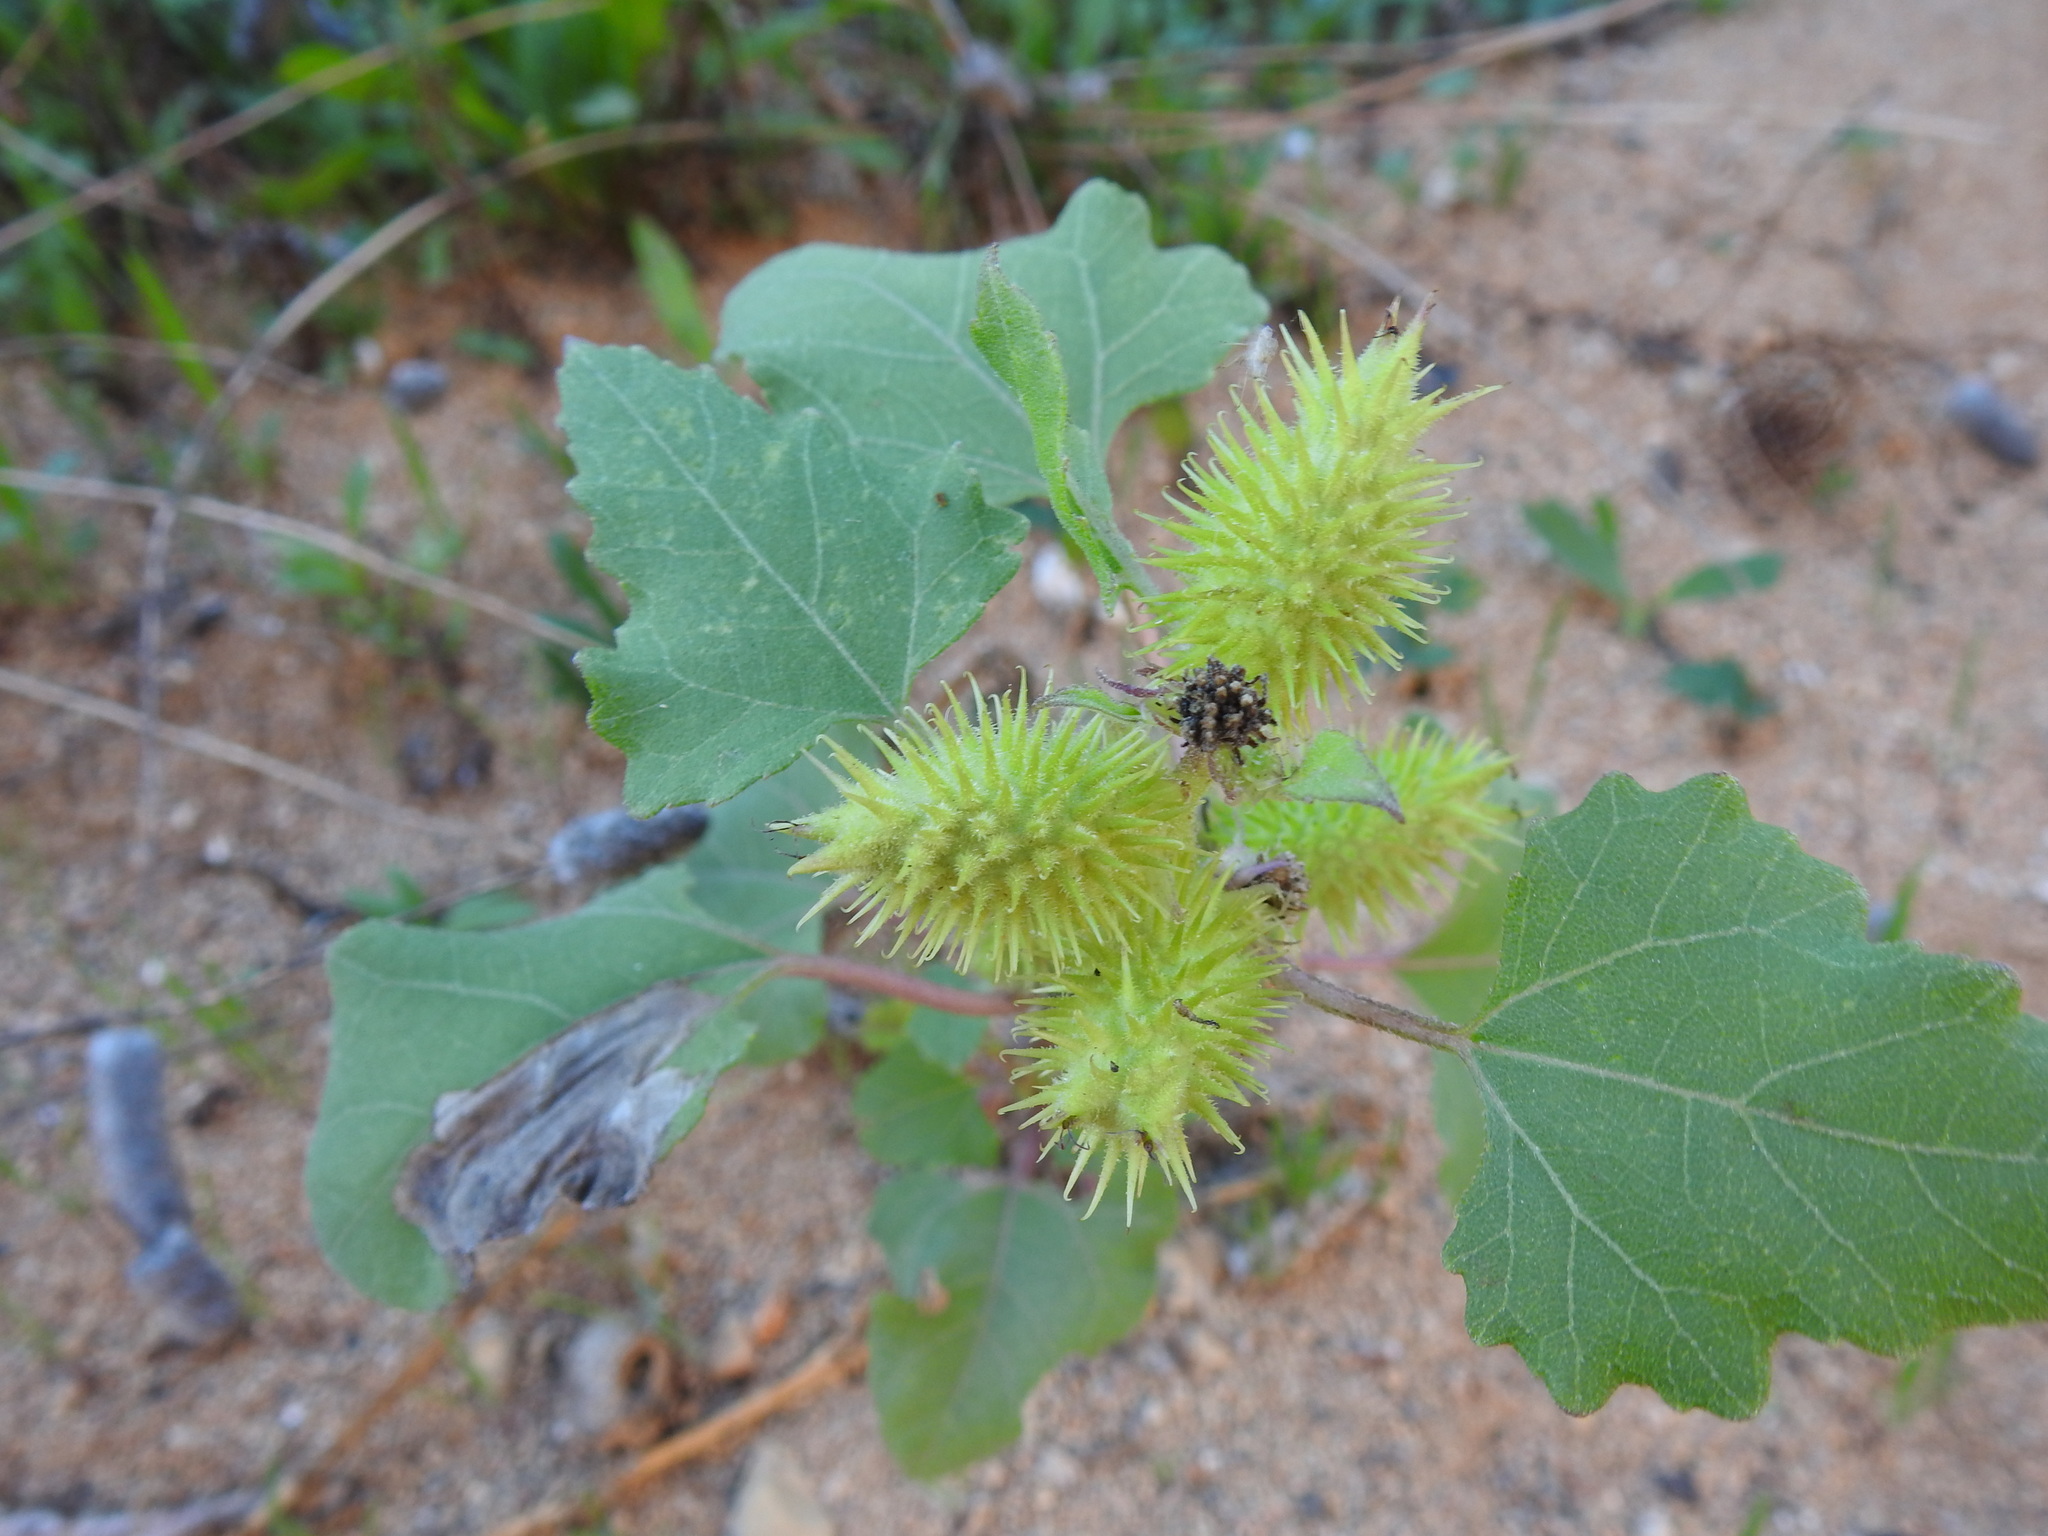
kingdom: Plantae
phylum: Tracheophyta
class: Magnoliopsida
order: Asterales
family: Asteraceae
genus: Xanthium
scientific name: Xanthium orientale
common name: Californian burr
